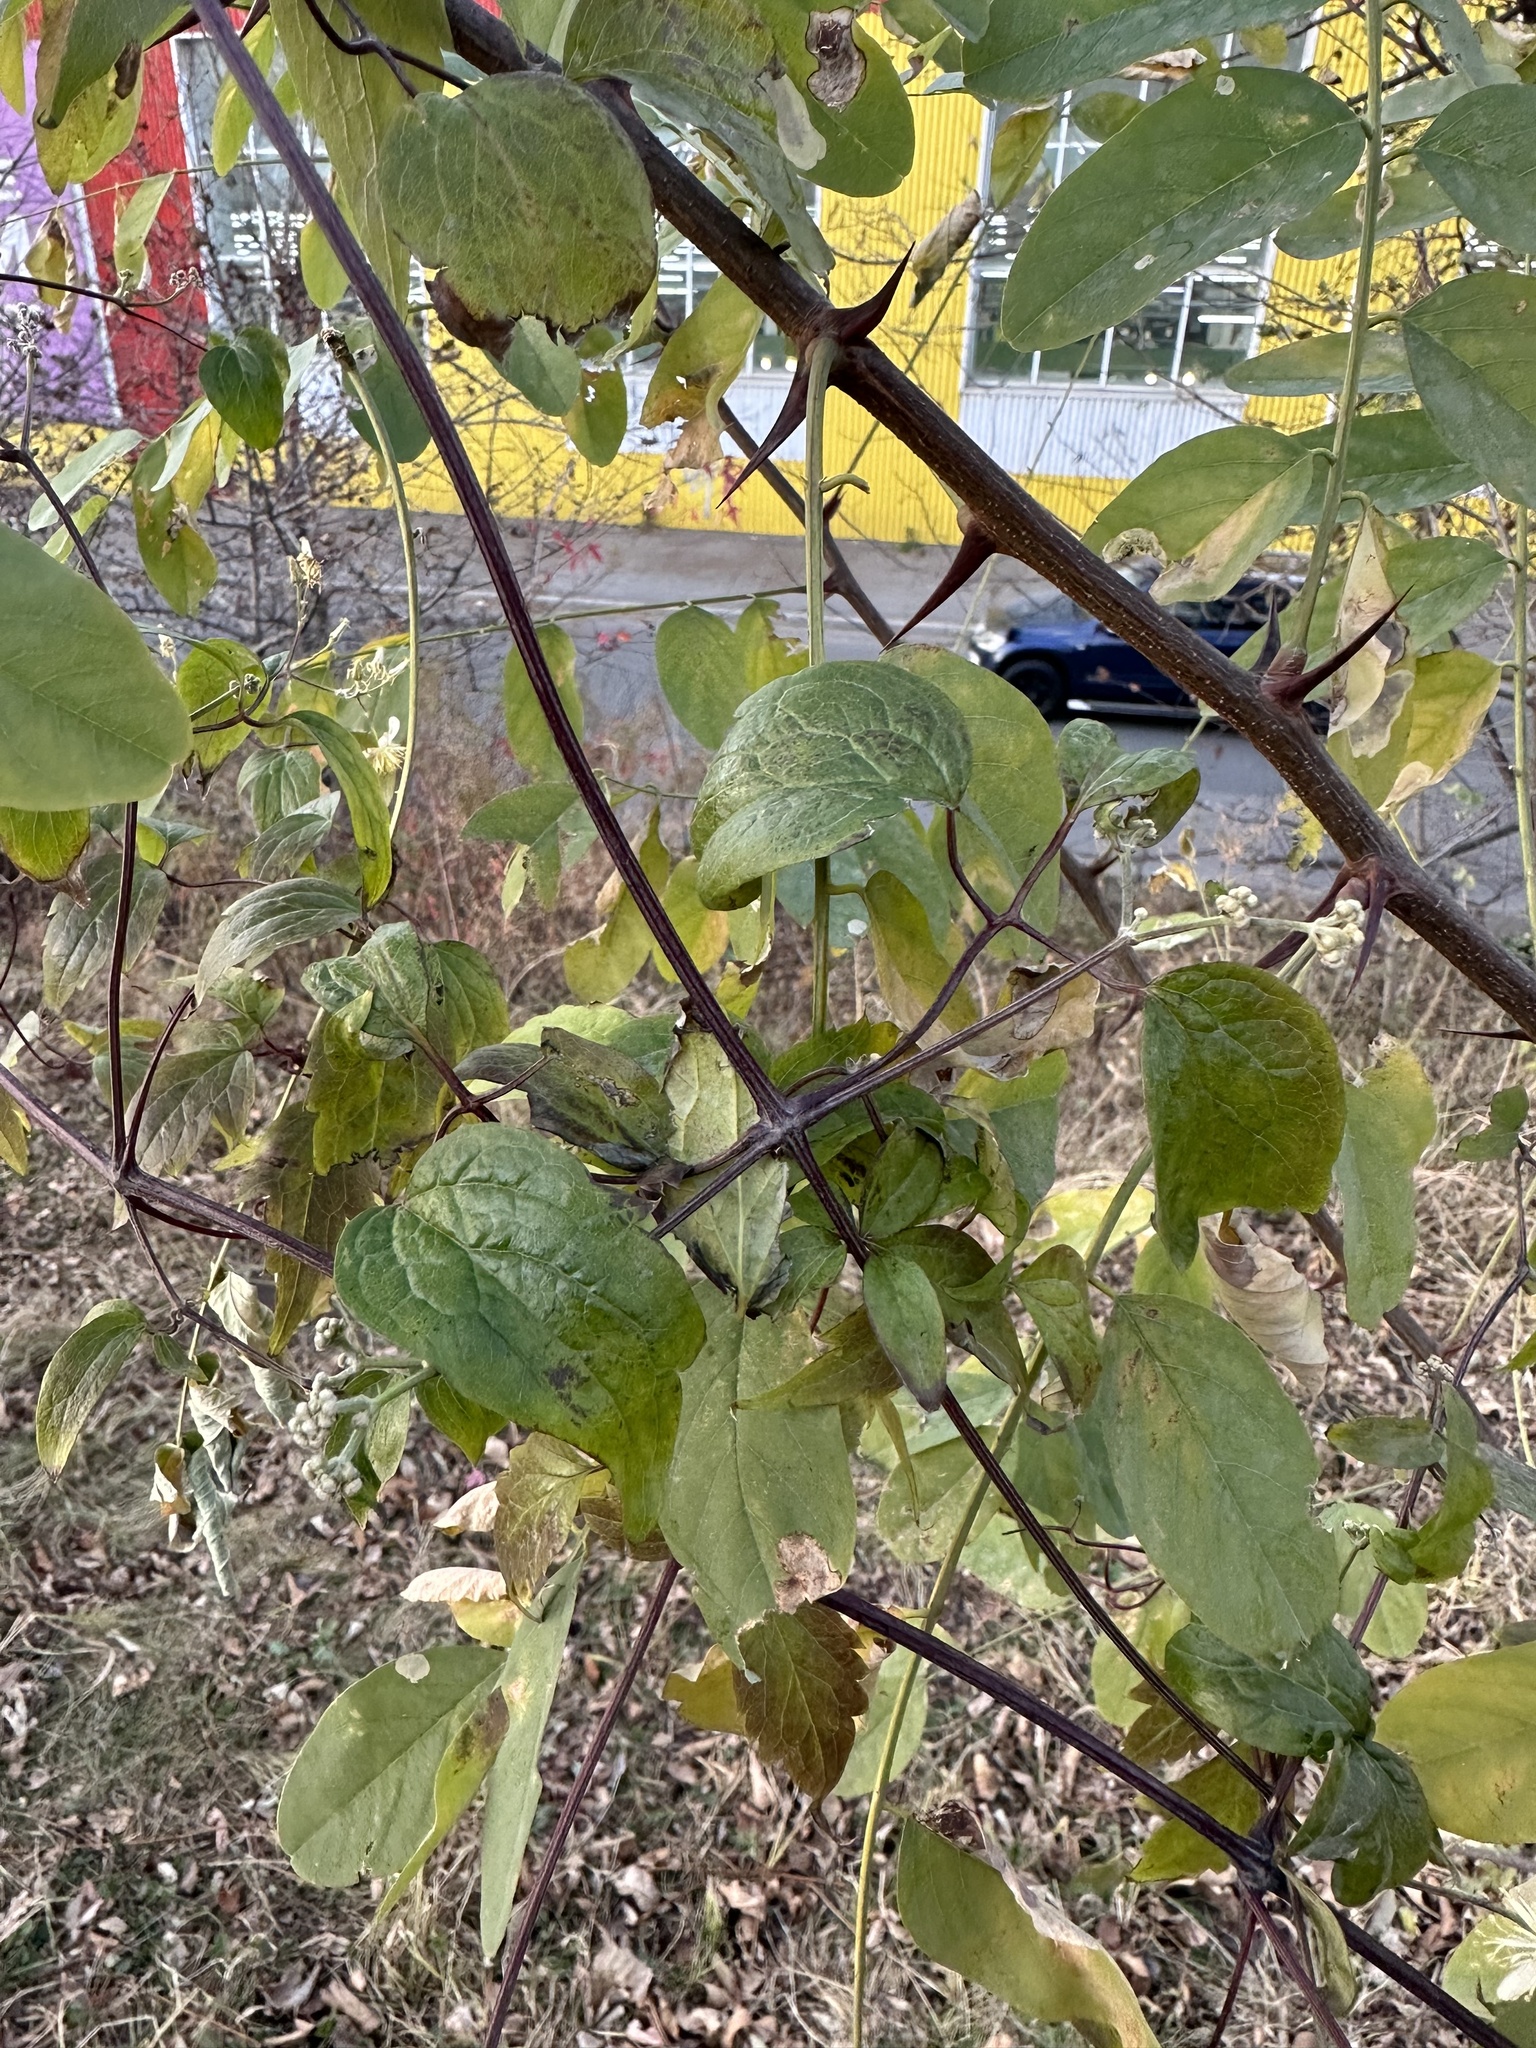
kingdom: Plantae
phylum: Tracheophyta
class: Magnoliopsida
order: Ranunculales
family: Ranunculaceae
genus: Clematis
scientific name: Clematis brevicaudata
